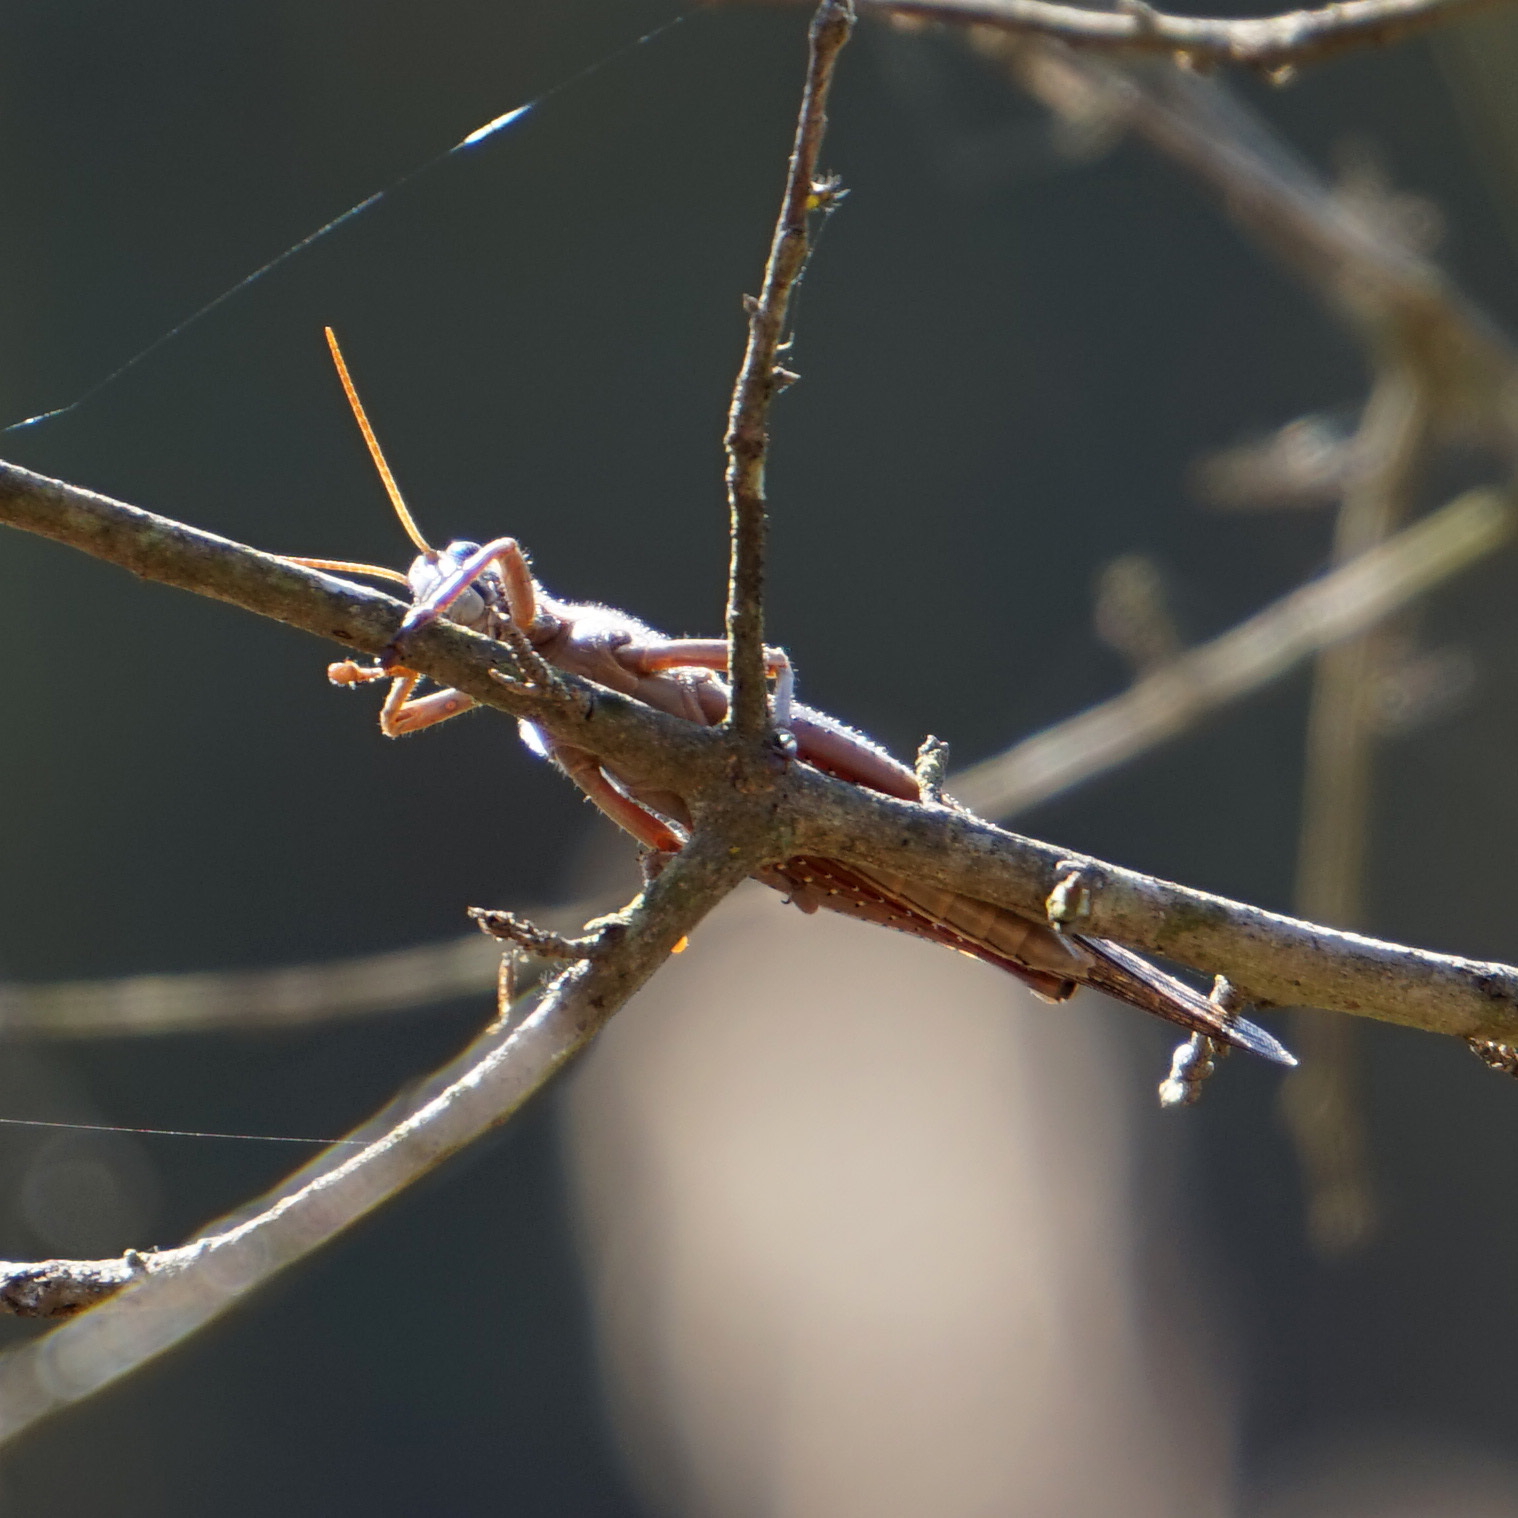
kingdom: Animalia
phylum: Arthropoda
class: Insecta
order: Orthoptera
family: Acrididae
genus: Schistocerca
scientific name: Schistocerca americana
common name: American bird locust
